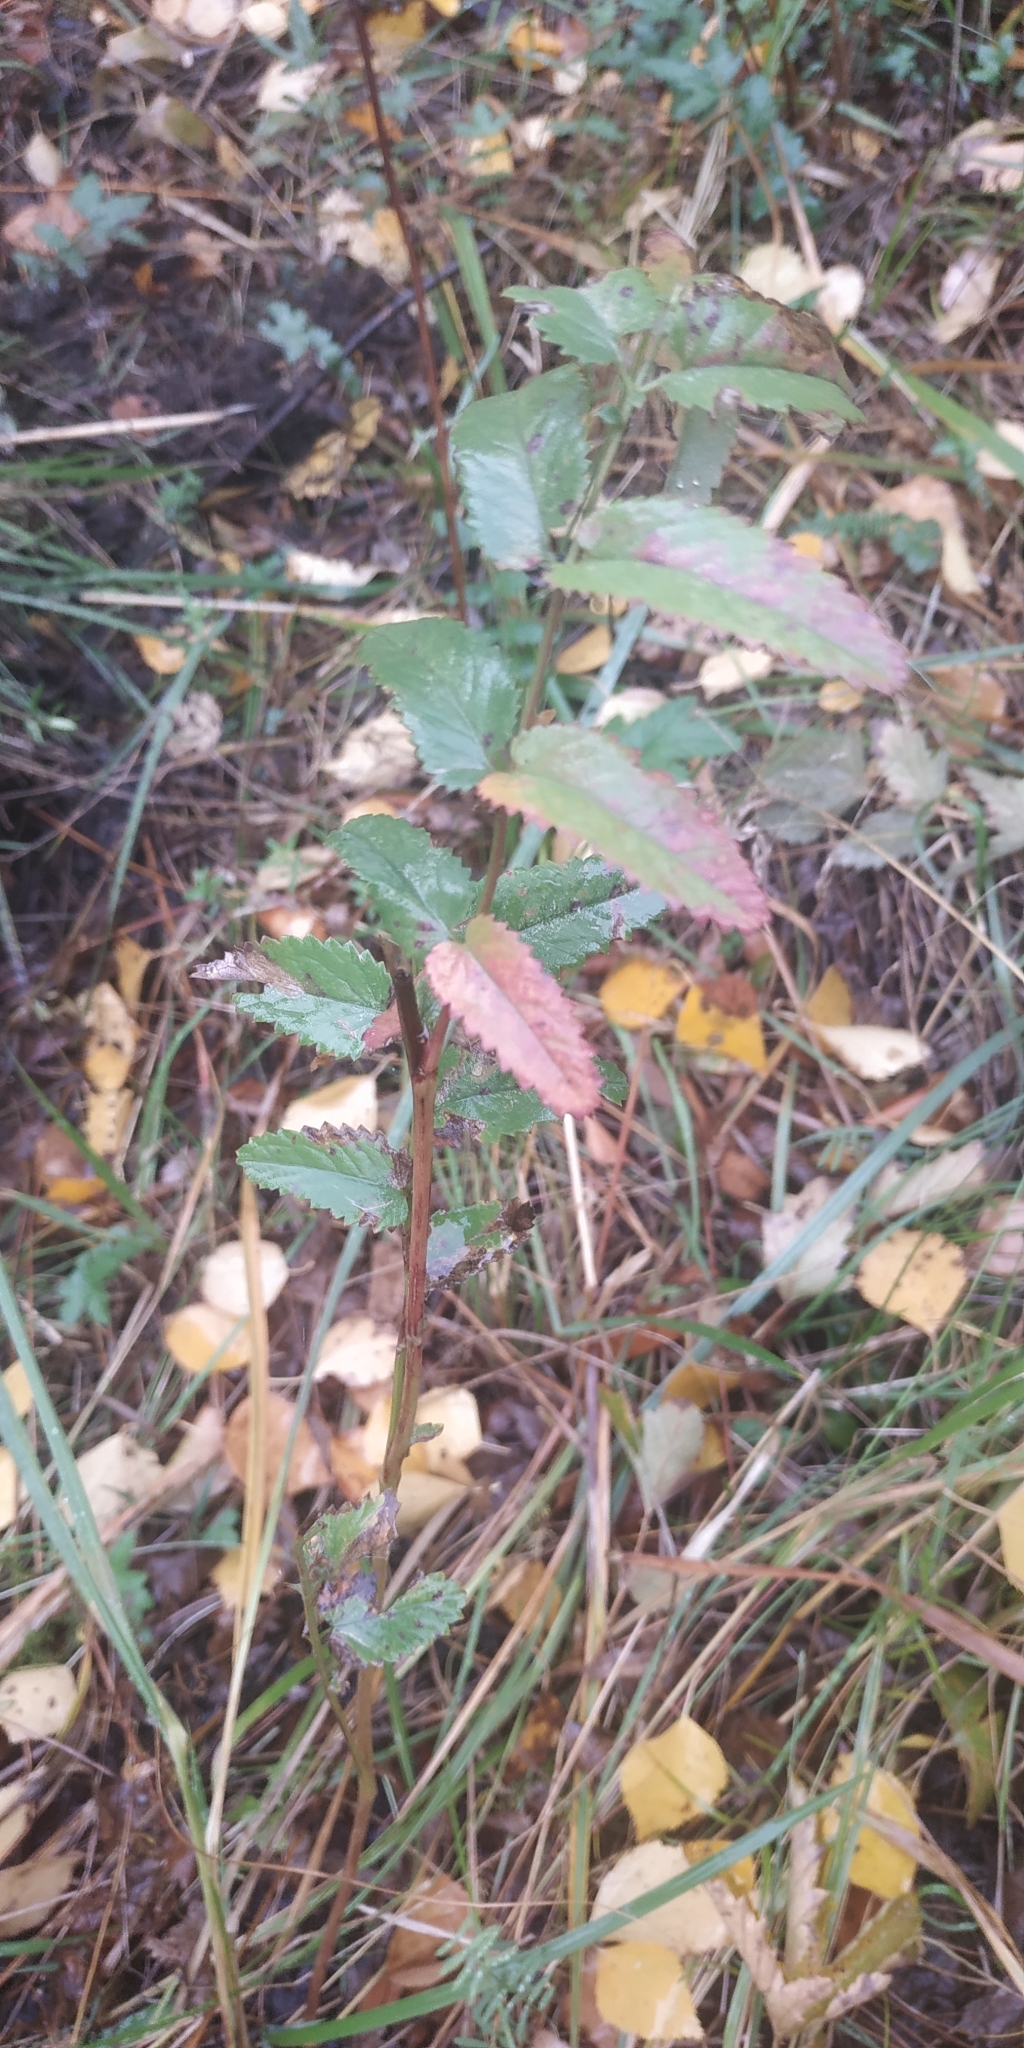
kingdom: Plantae
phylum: Tracheophyta
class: Magnoliopsida
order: Rosales
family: Rosaceae
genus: Sanguisorba
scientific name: Sanguisorba officinalis
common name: Great burnet
